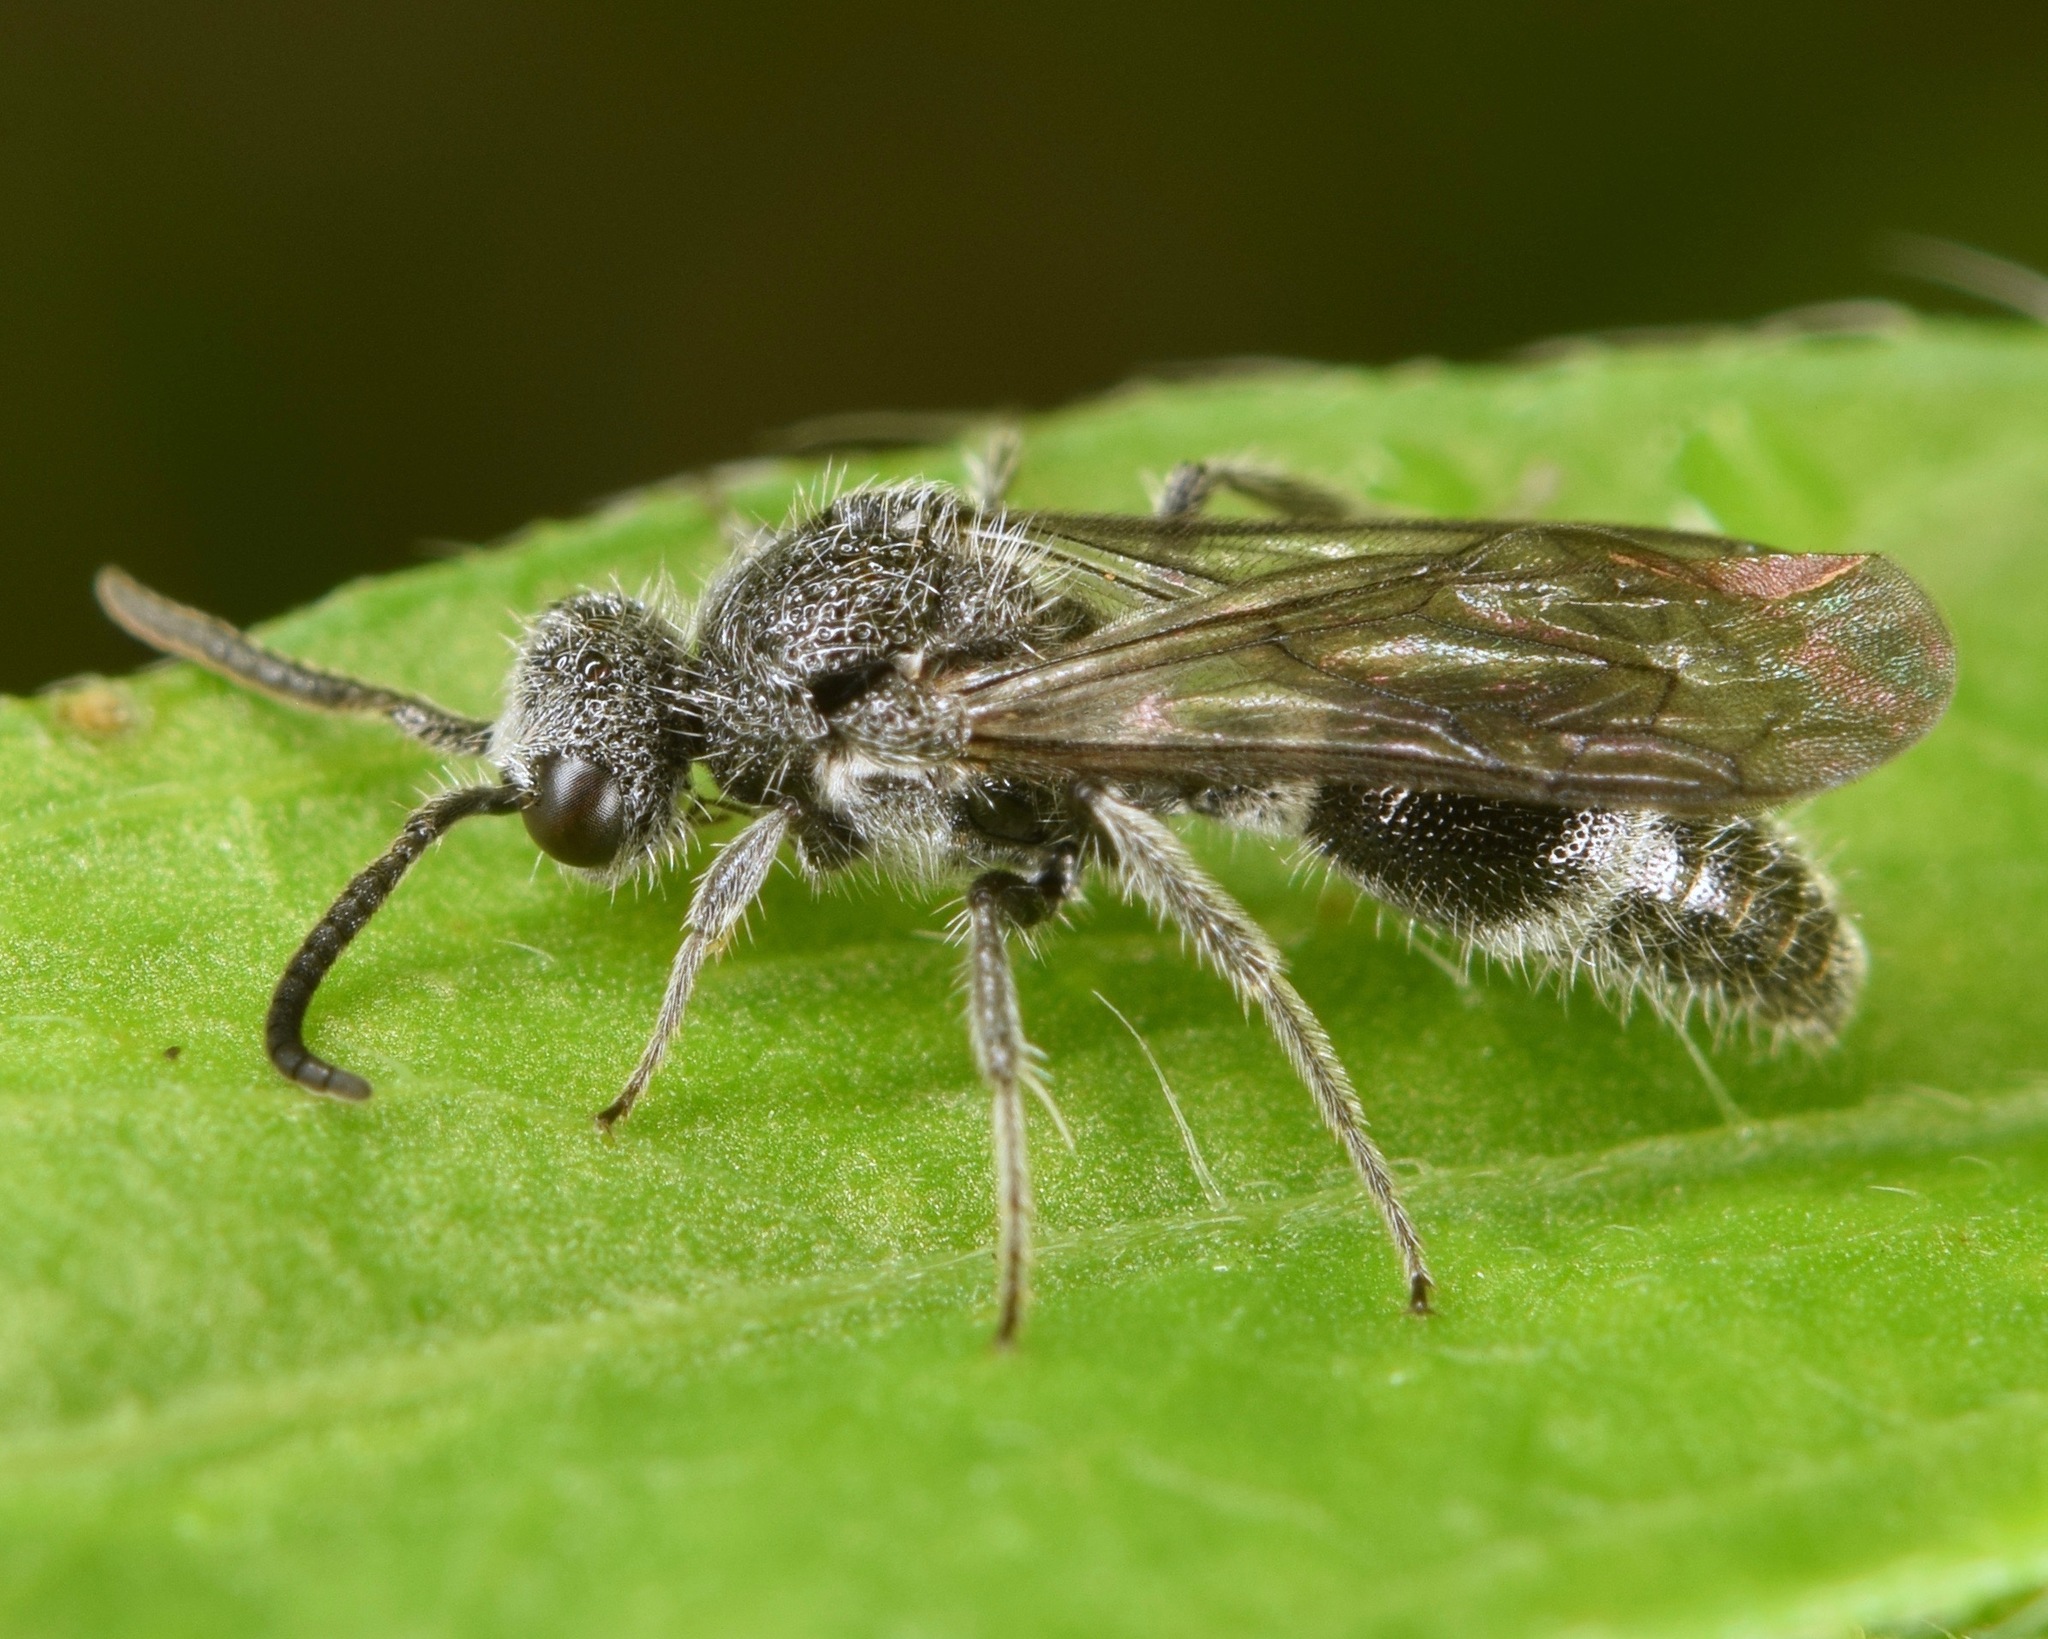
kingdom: Animalia
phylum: Arthropoda
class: Insecta
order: Hymenoptera
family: Mutillidae
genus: Ephuta
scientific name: Ephuta
